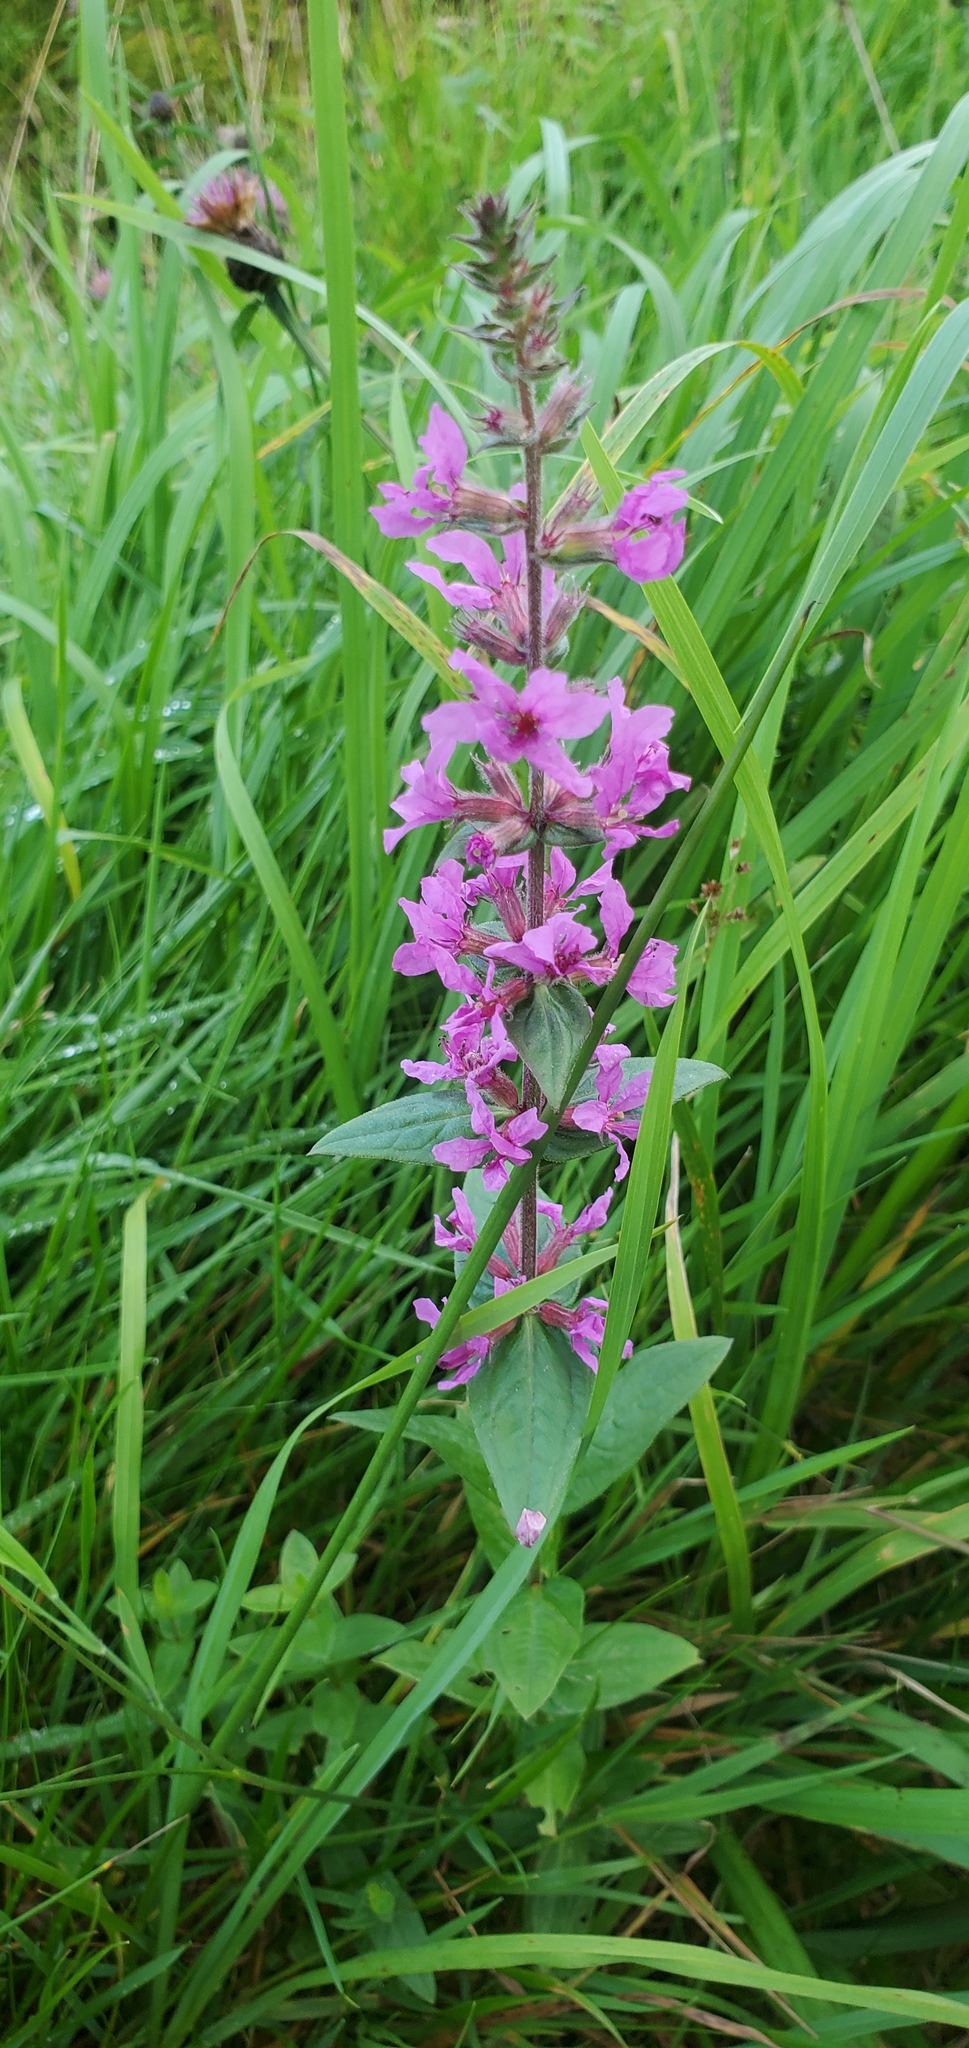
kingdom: Plantae
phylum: Tracheophyta
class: Magnoliopsida
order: Myrtales
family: Lythraceae
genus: Lythrum
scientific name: Lythrum salicaria
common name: Purple loosestrife
